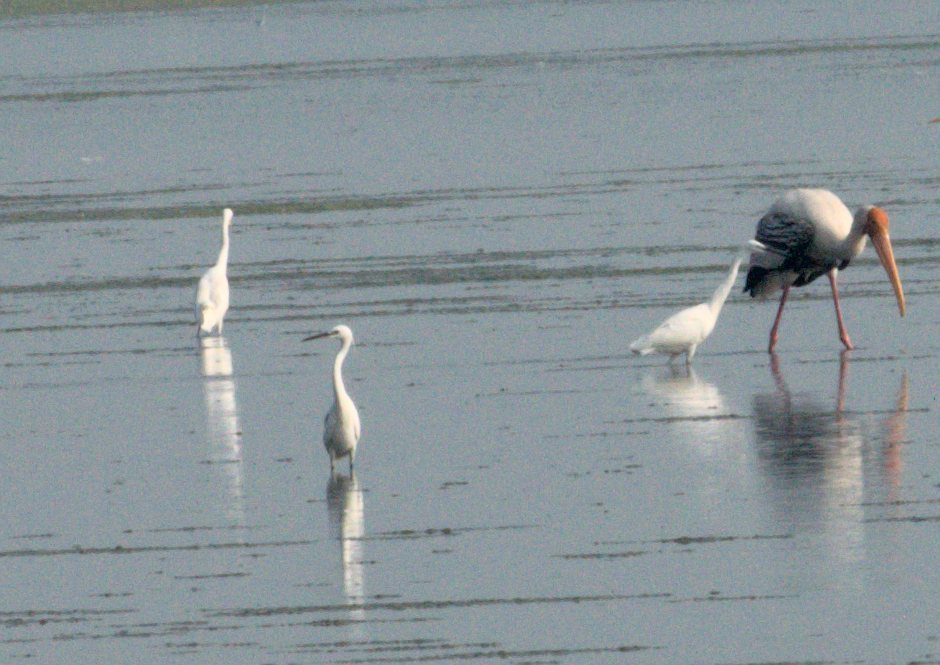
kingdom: Animalia
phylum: Chordata
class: Aves
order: Pelecaniformes
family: Ardeidae
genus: Egretta
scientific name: Egretta garzetta
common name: Little egret
